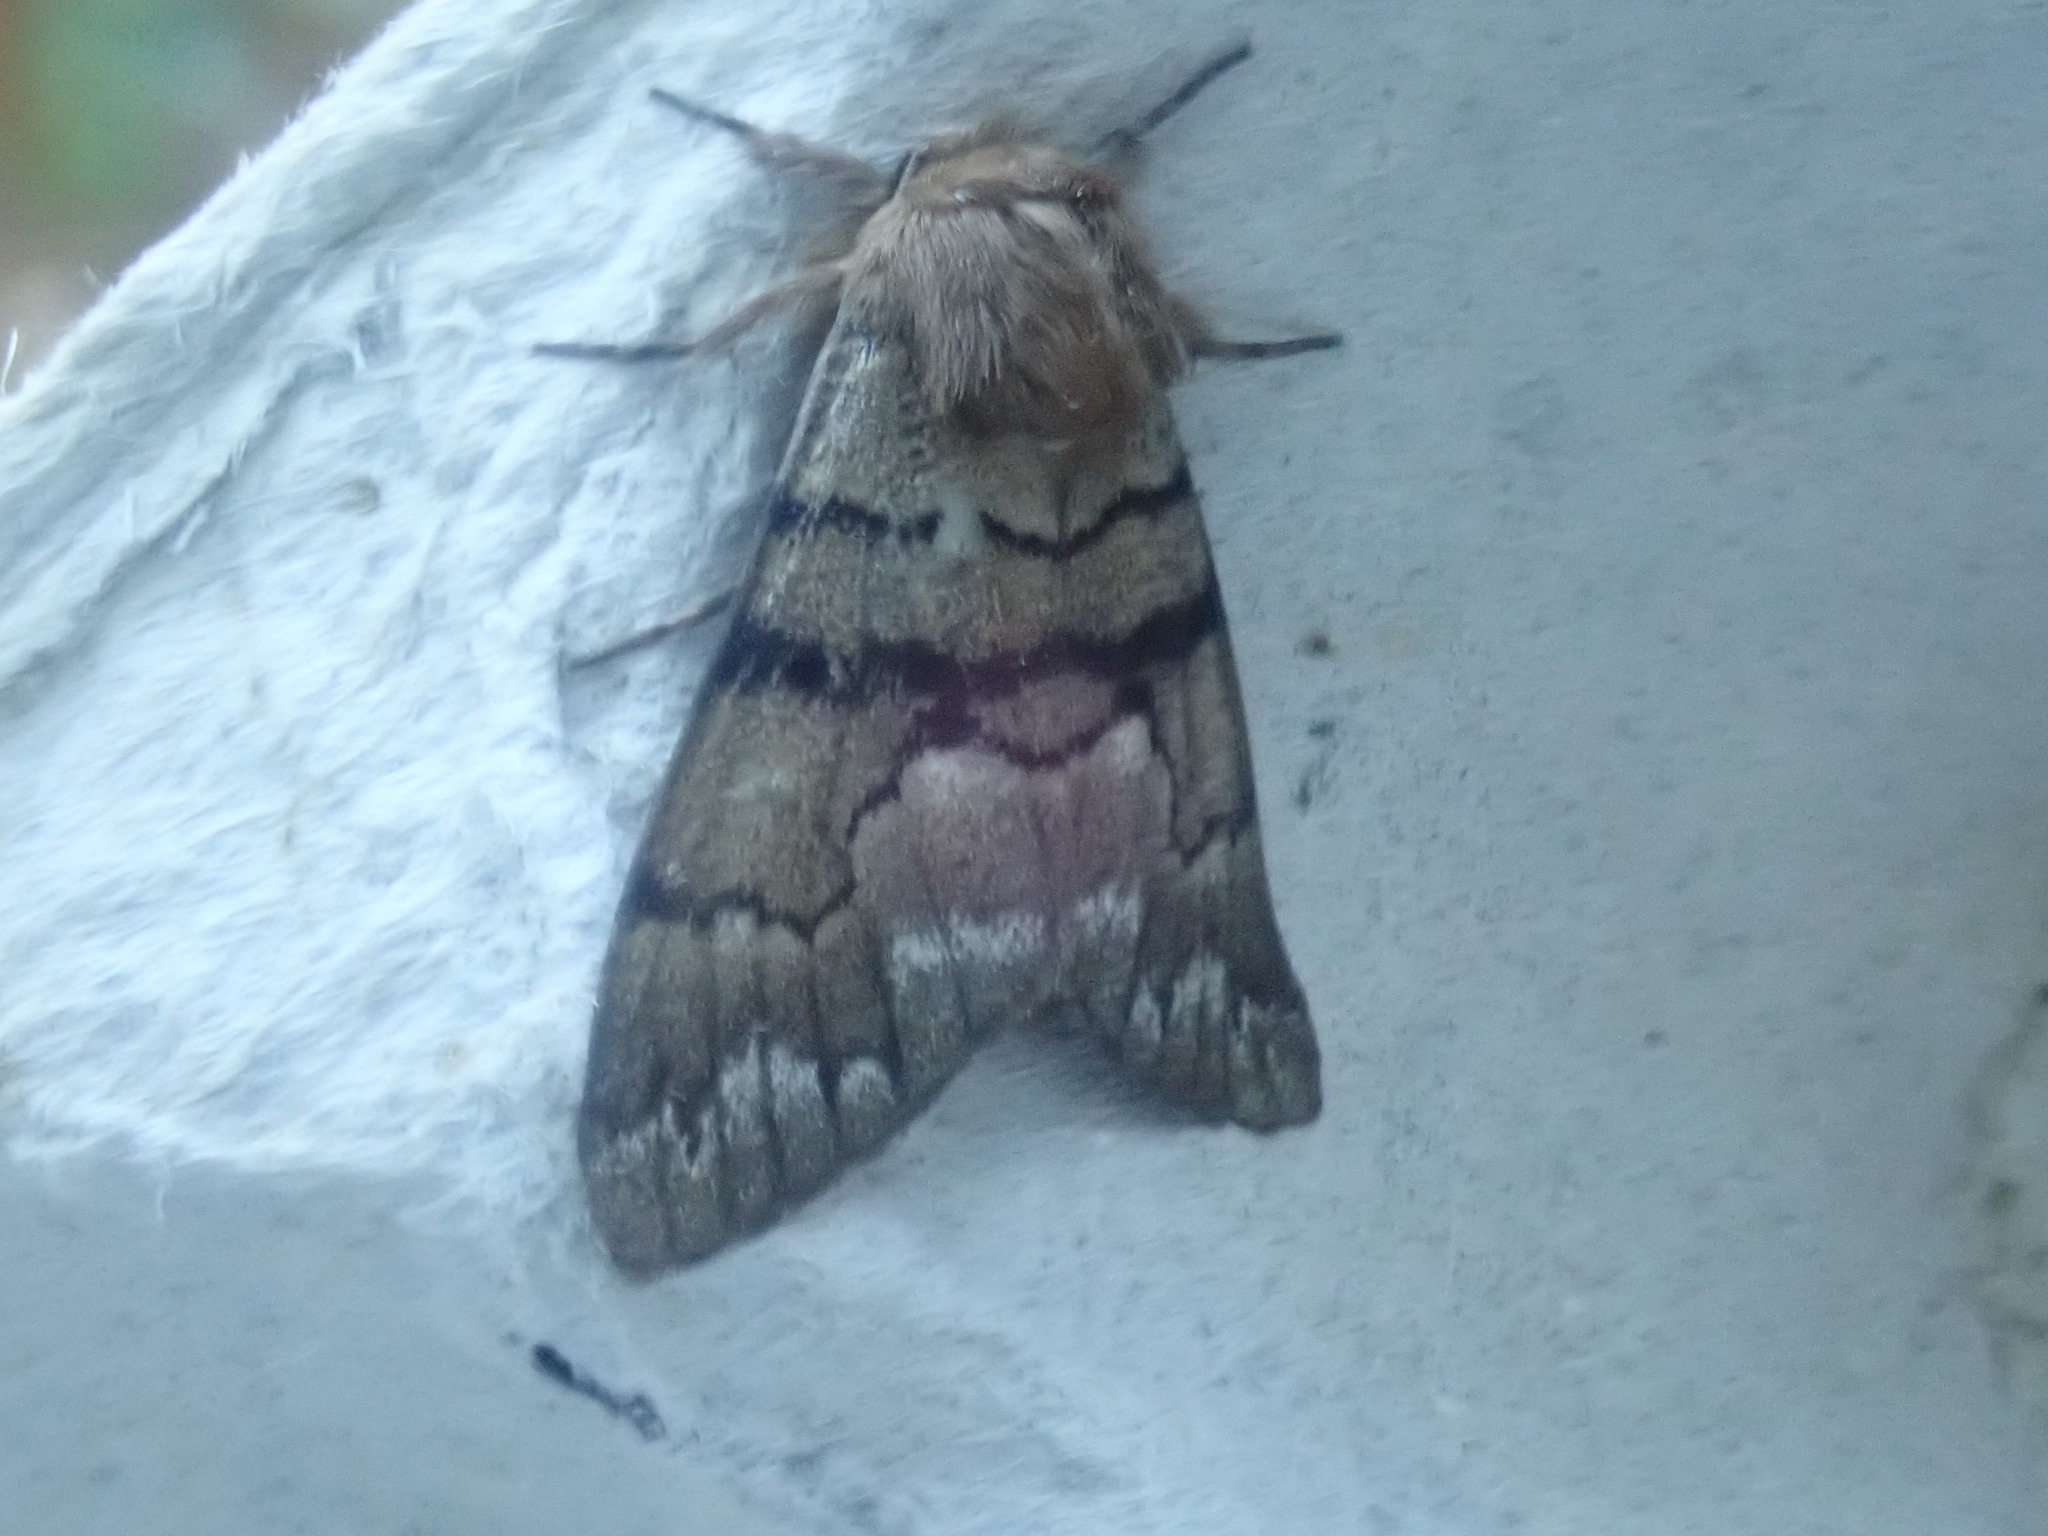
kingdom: Animalia
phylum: Arthropoda
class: Insecta
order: Lepidoptera
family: Noctuidae
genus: Panthea
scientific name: Panthea furcilla
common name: Eastern panthea moth
